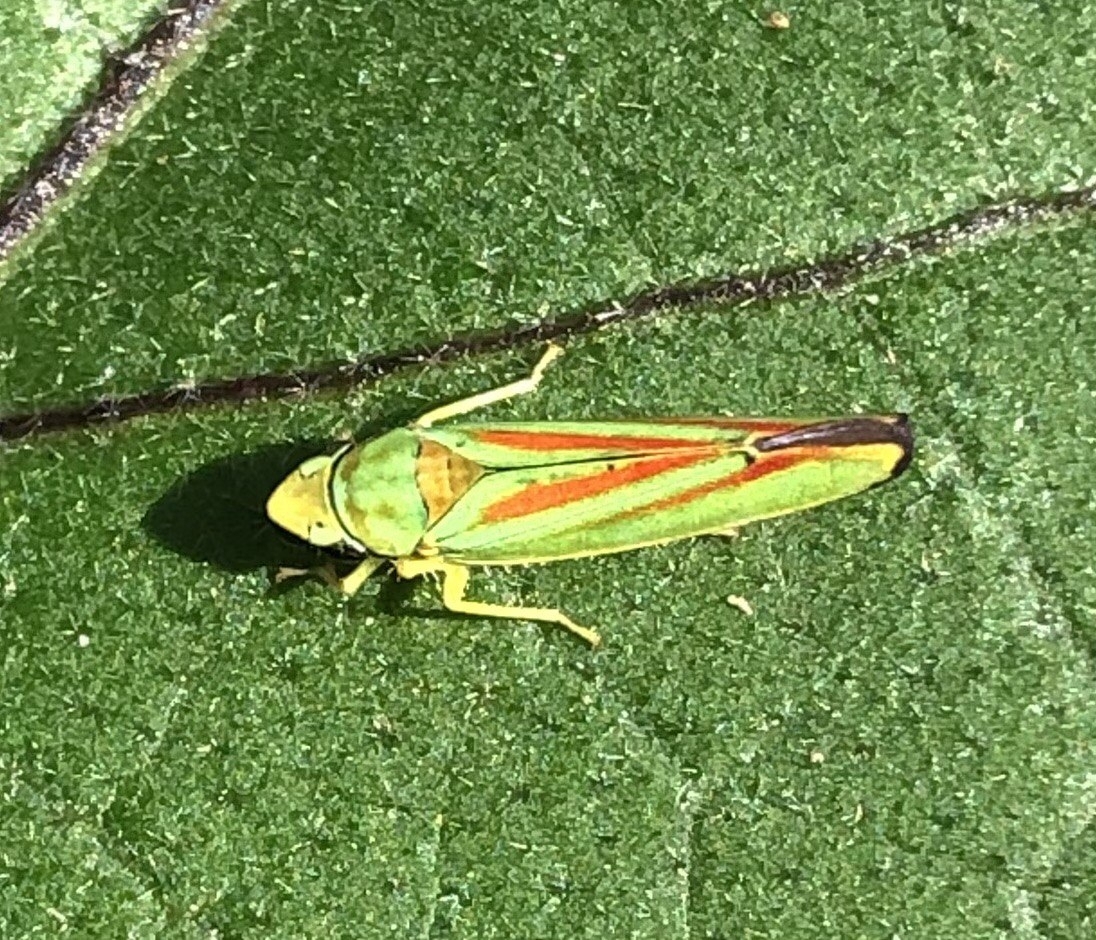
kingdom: Animalia
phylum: Arthropoda
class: Insecta
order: Hemiptera
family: Cicadellidae
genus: Graphocephala
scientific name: Graphocephala fennahi
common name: Rhododendron leafhopper
